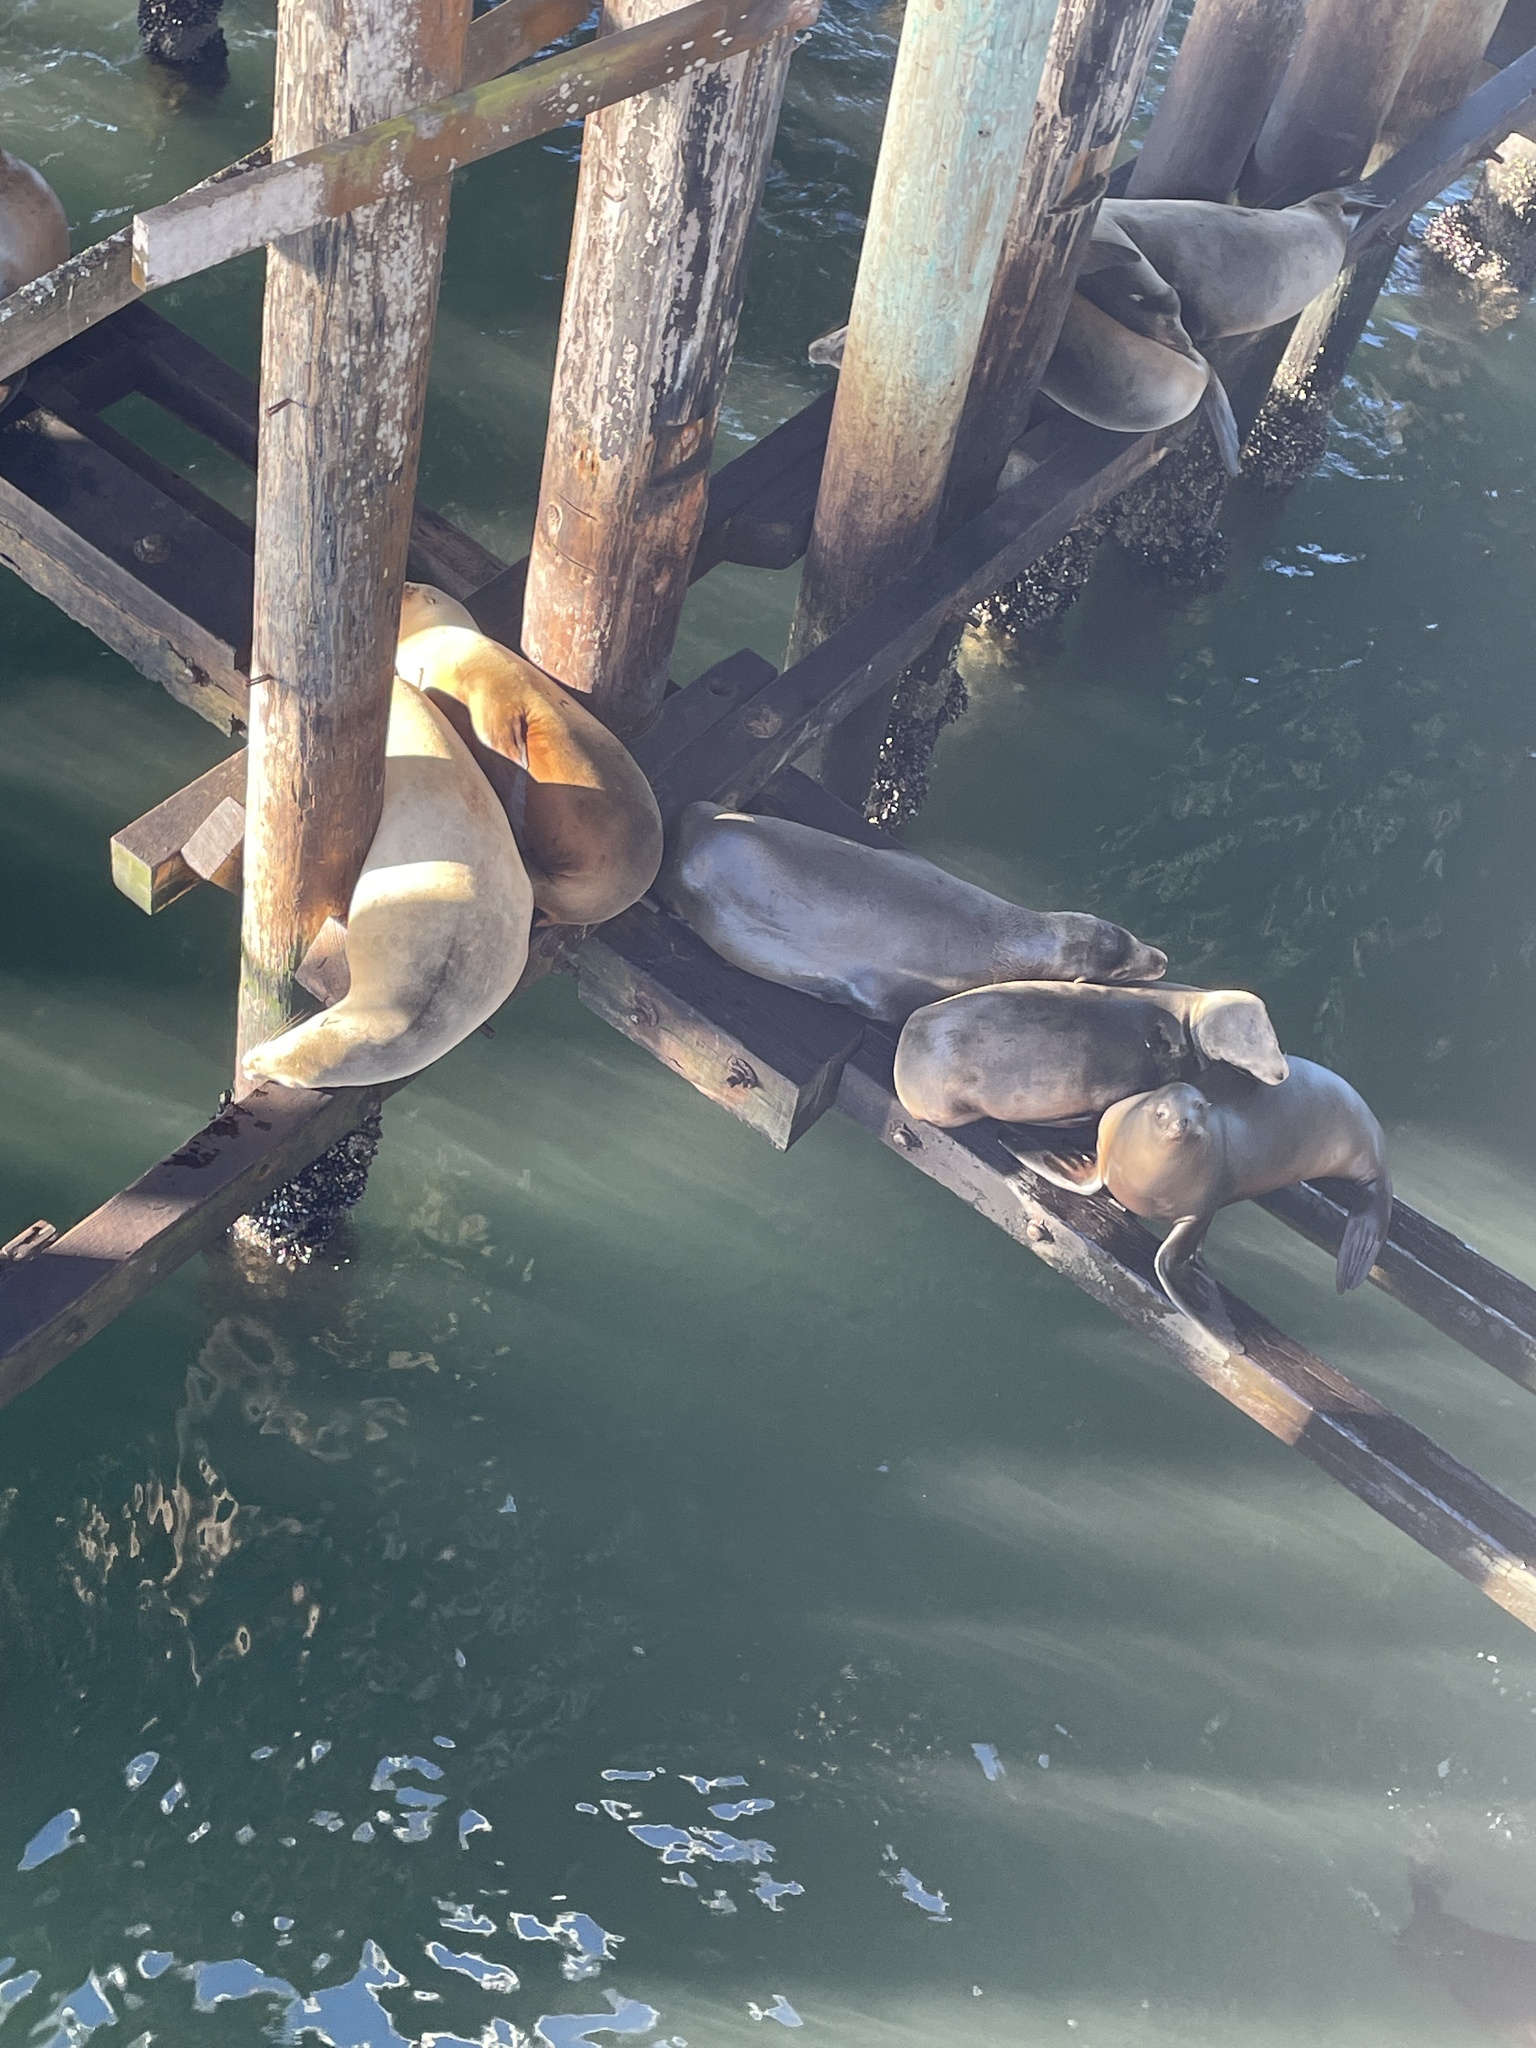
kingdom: Animalia
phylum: Chordata
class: Mammalia
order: Carnivora
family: Otariidae
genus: Zalophus
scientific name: Zalophus californianus
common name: California sea lion
